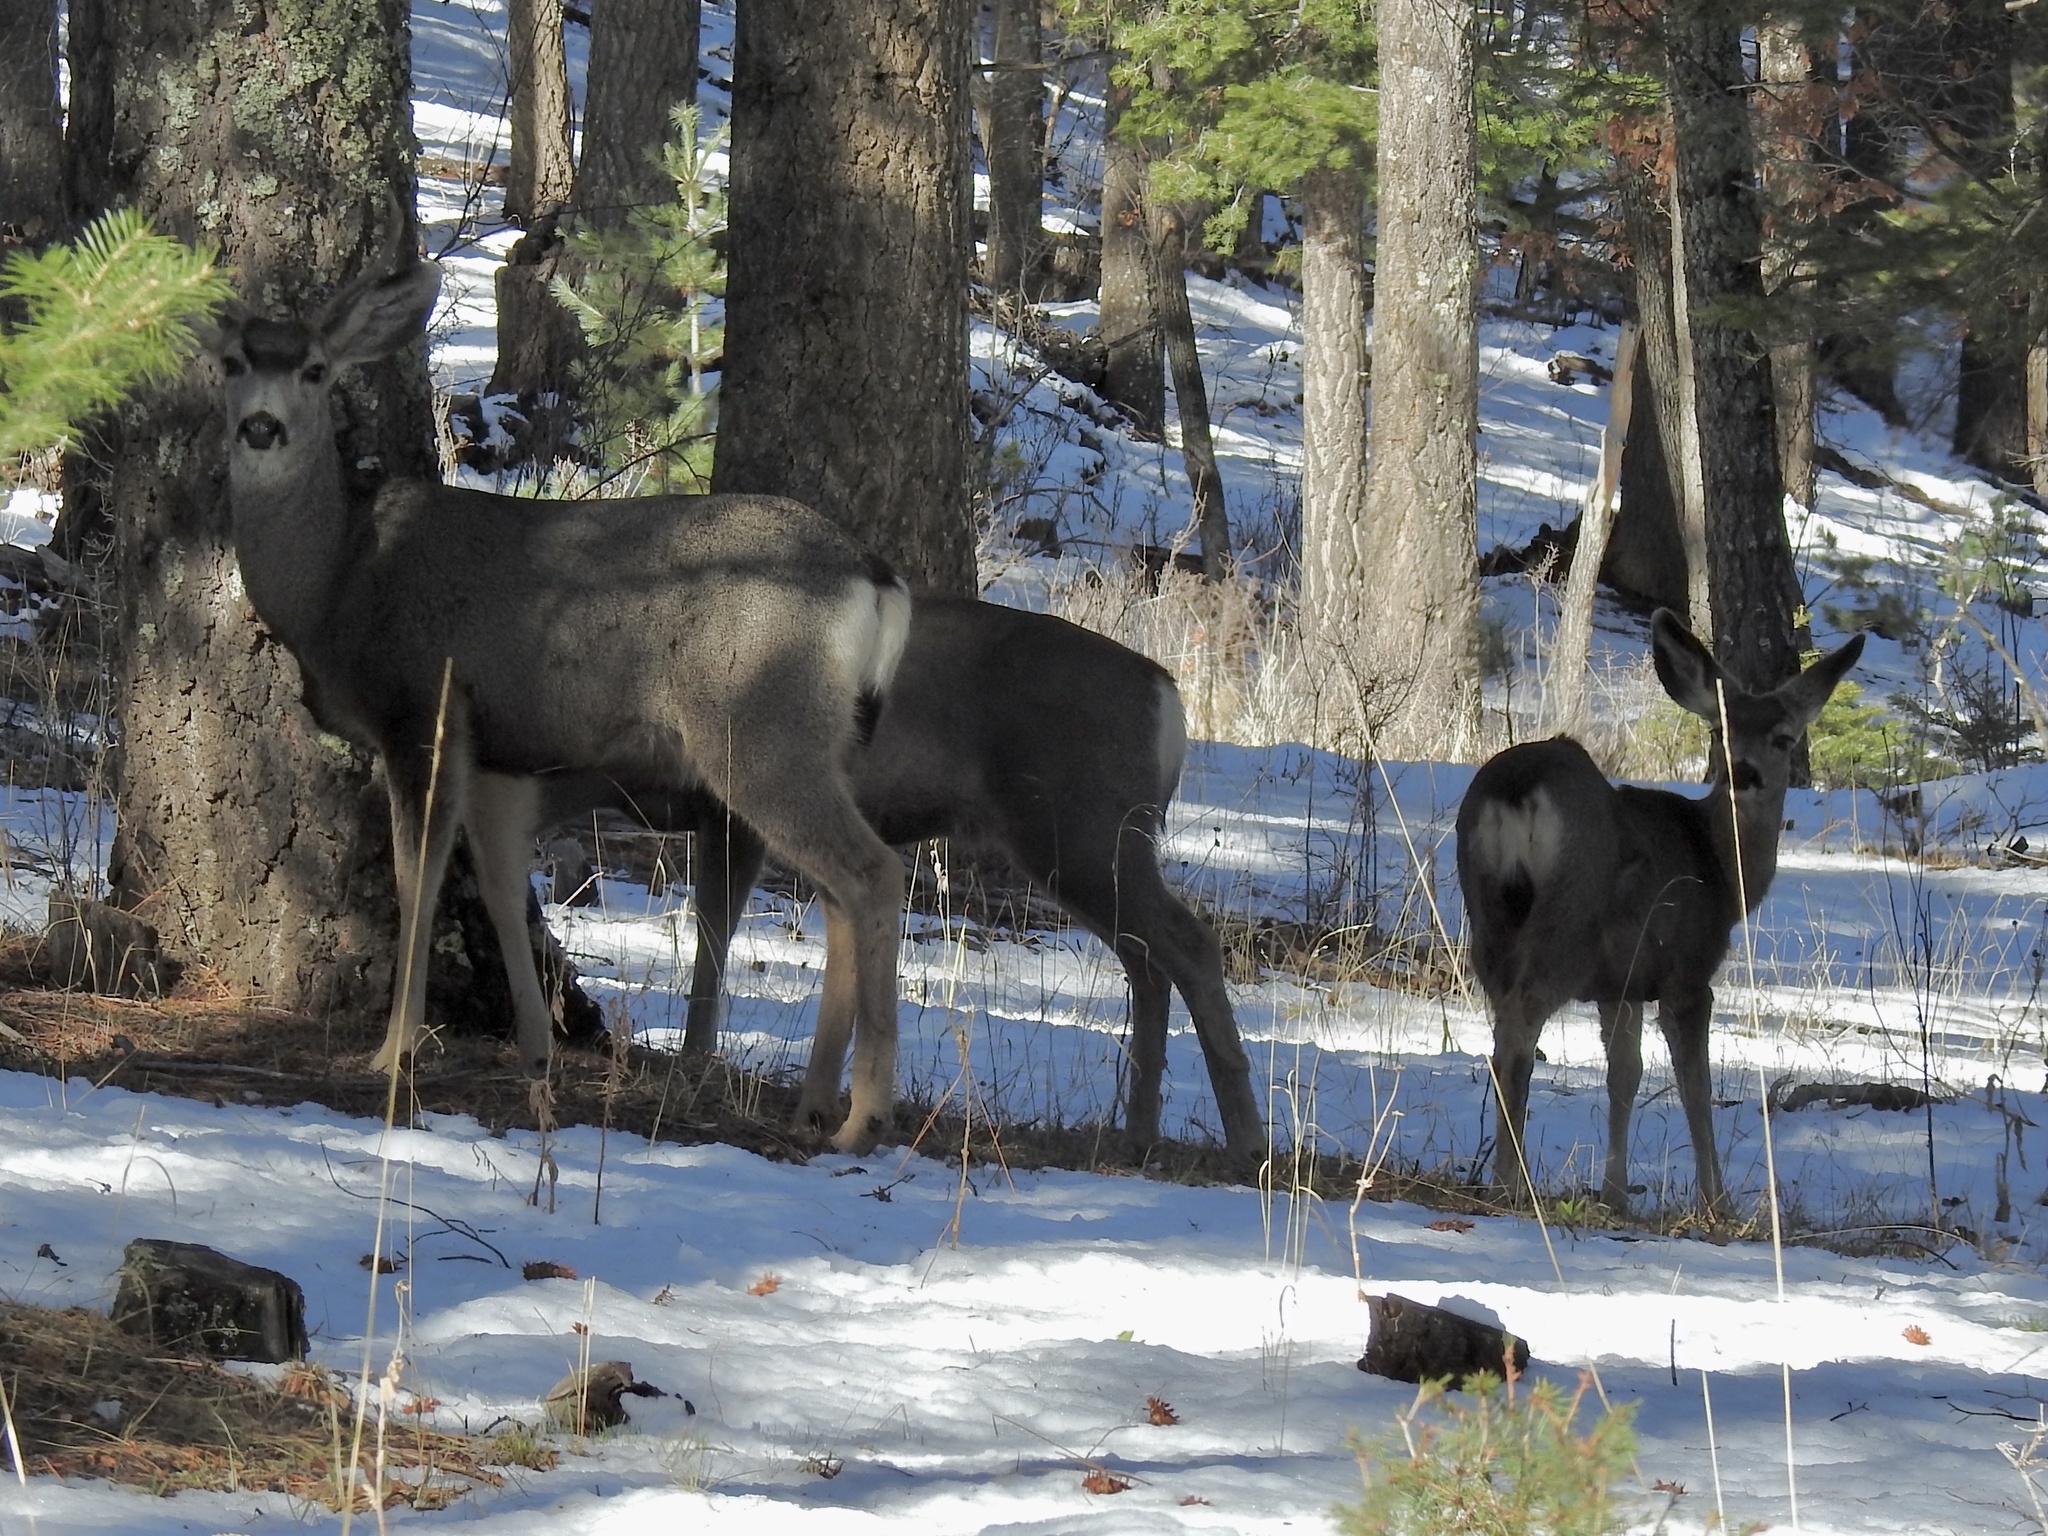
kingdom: Animalia
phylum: Chordata
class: Mammalia
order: Artiodactyla
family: Cervidae
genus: Odocoileus
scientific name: Odocoileus hemionus
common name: Mule deer
